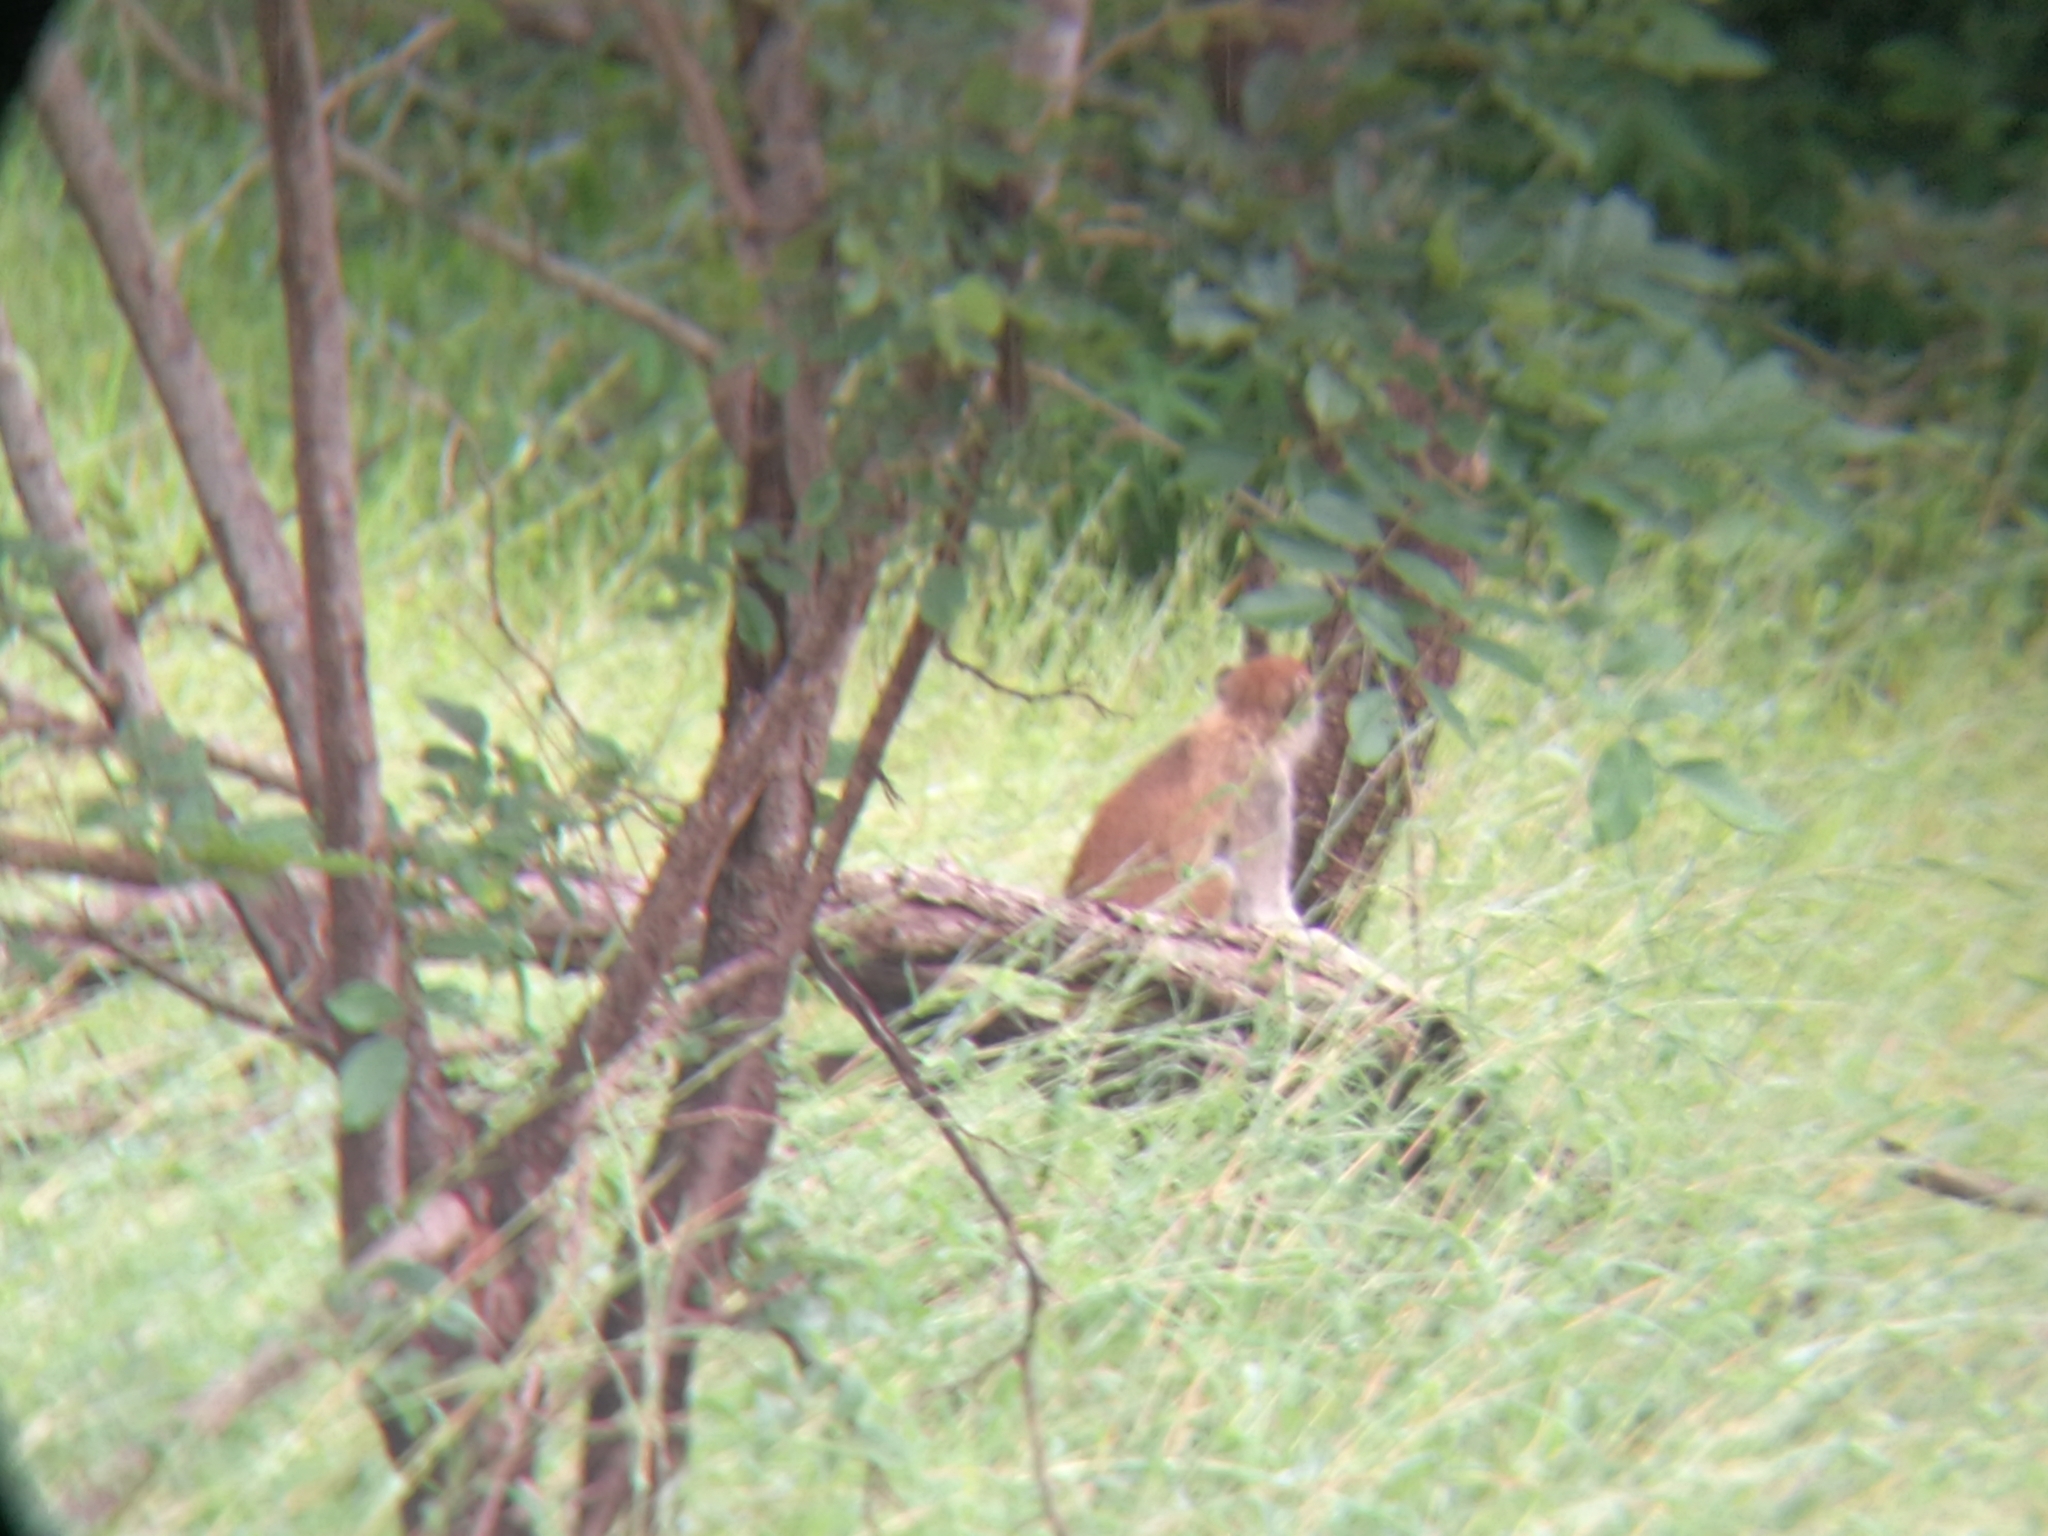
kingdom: Animalia
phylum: Chordata
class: Mammalia
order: Primates
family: Cercopithecidae
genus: Erythrocebus
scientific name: Erythrocebus patas
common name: Patas monkey
